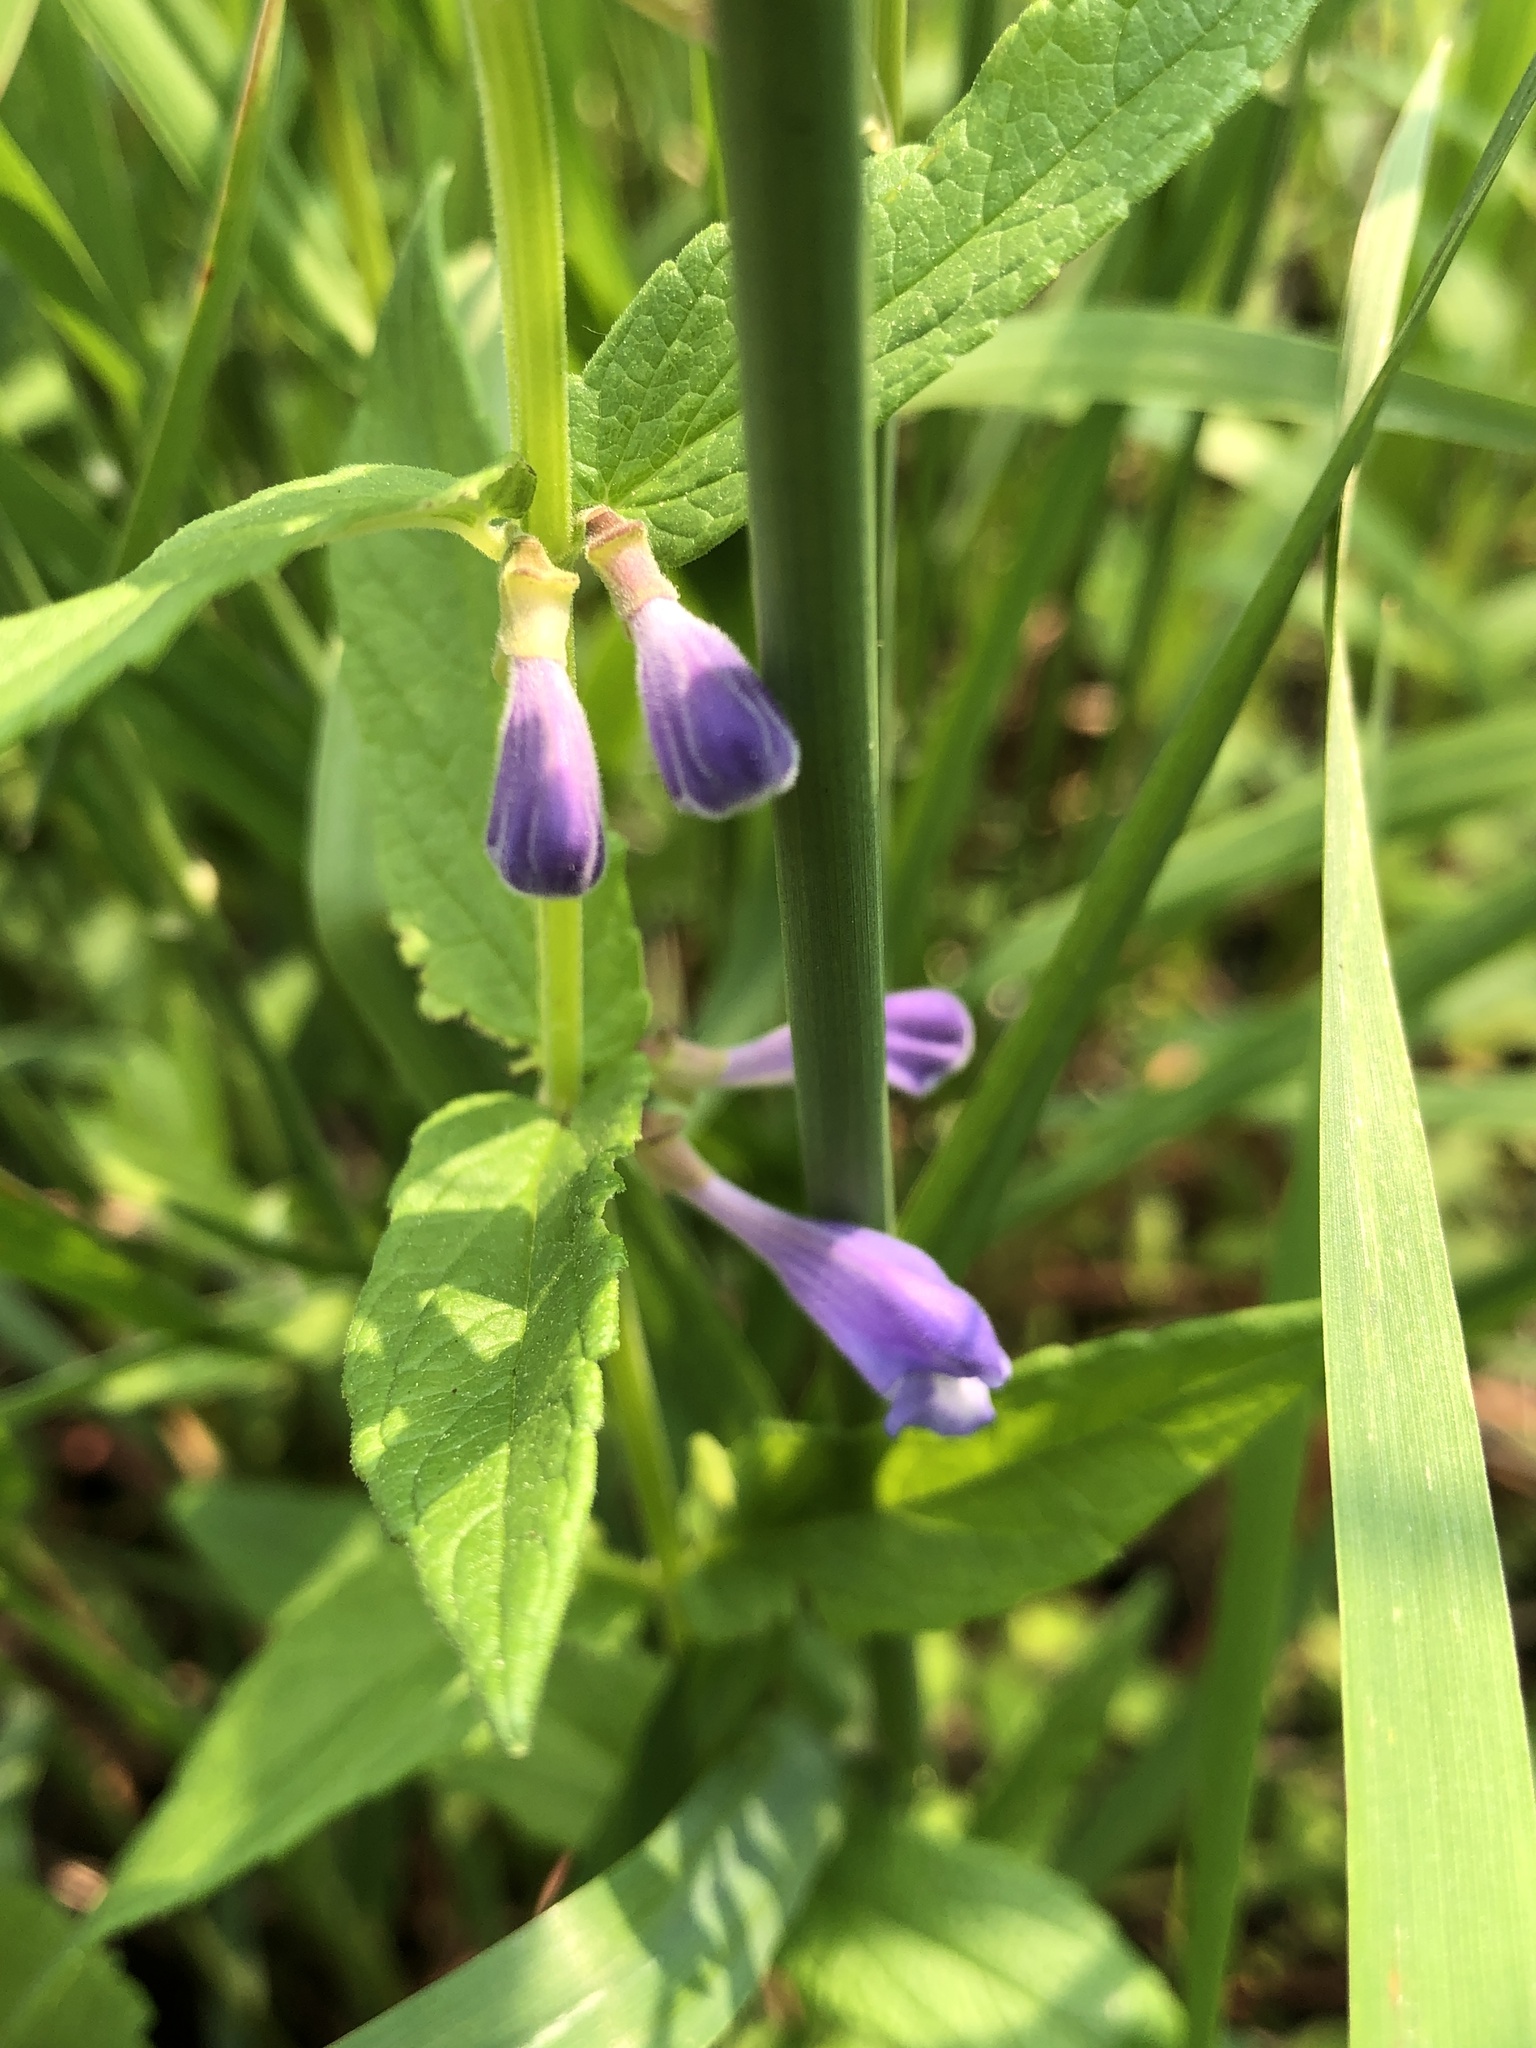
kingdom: Plantae
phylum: Tracheophyta
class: Magnoliopsida
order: Lamiales
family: Lamiaceae
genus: Scutellaria
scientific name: Scutellaria galericulata
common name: Skullcap
